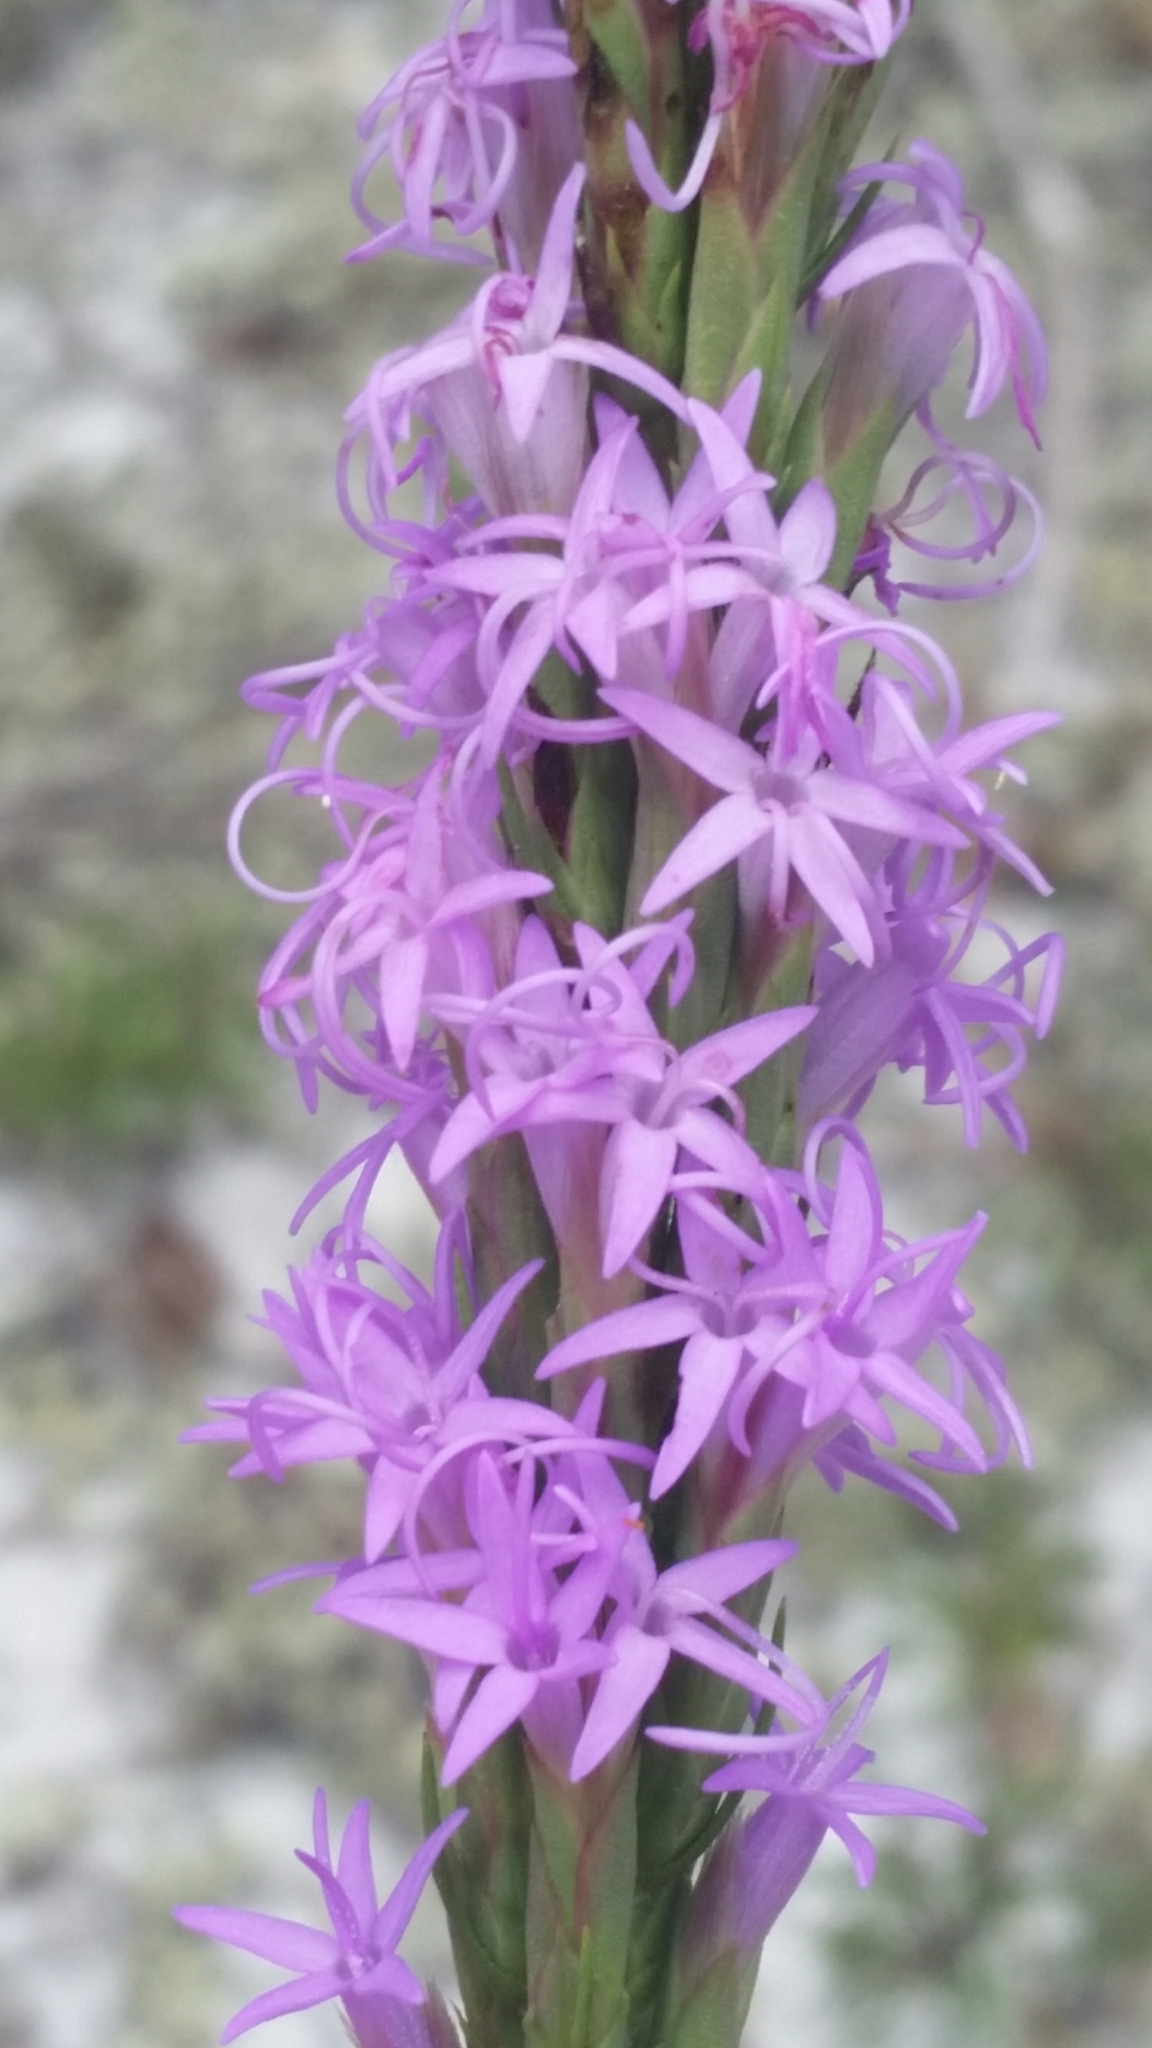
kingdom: Plantae
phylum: Tracheophyta
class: Magnoliopsida
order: Asterales
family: Asteraceae
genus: Liatris
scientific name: Liatris chapmanii
